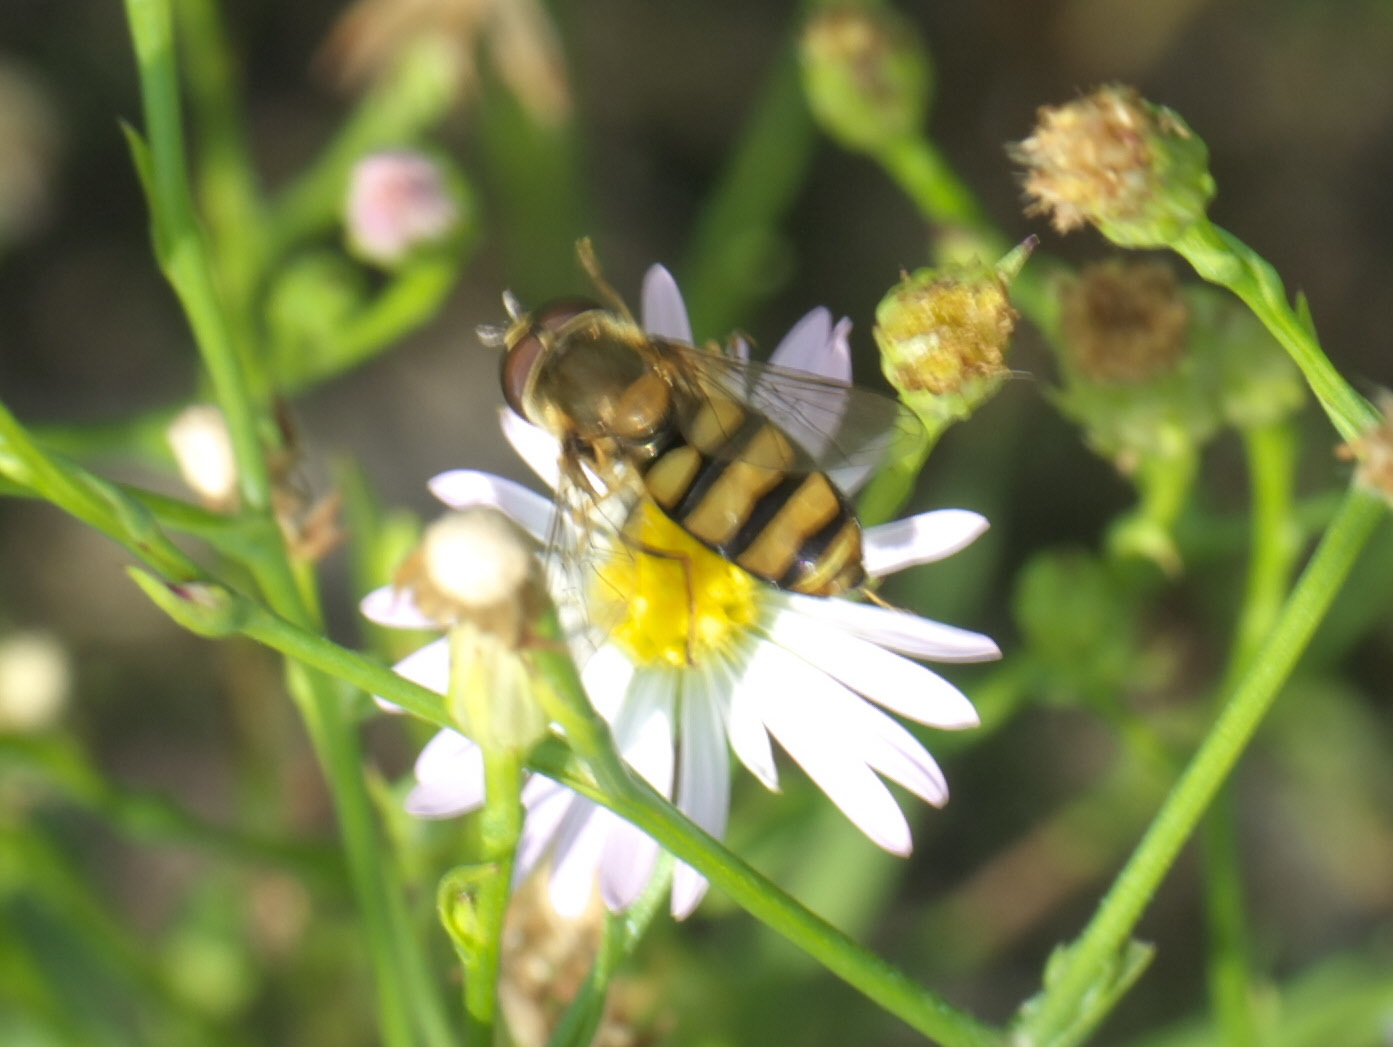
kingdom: Animalia
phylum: Arthropoda
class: Insecta
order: Diptera
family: Syrphidae
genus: Eupeodes
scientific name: Eupeodes
